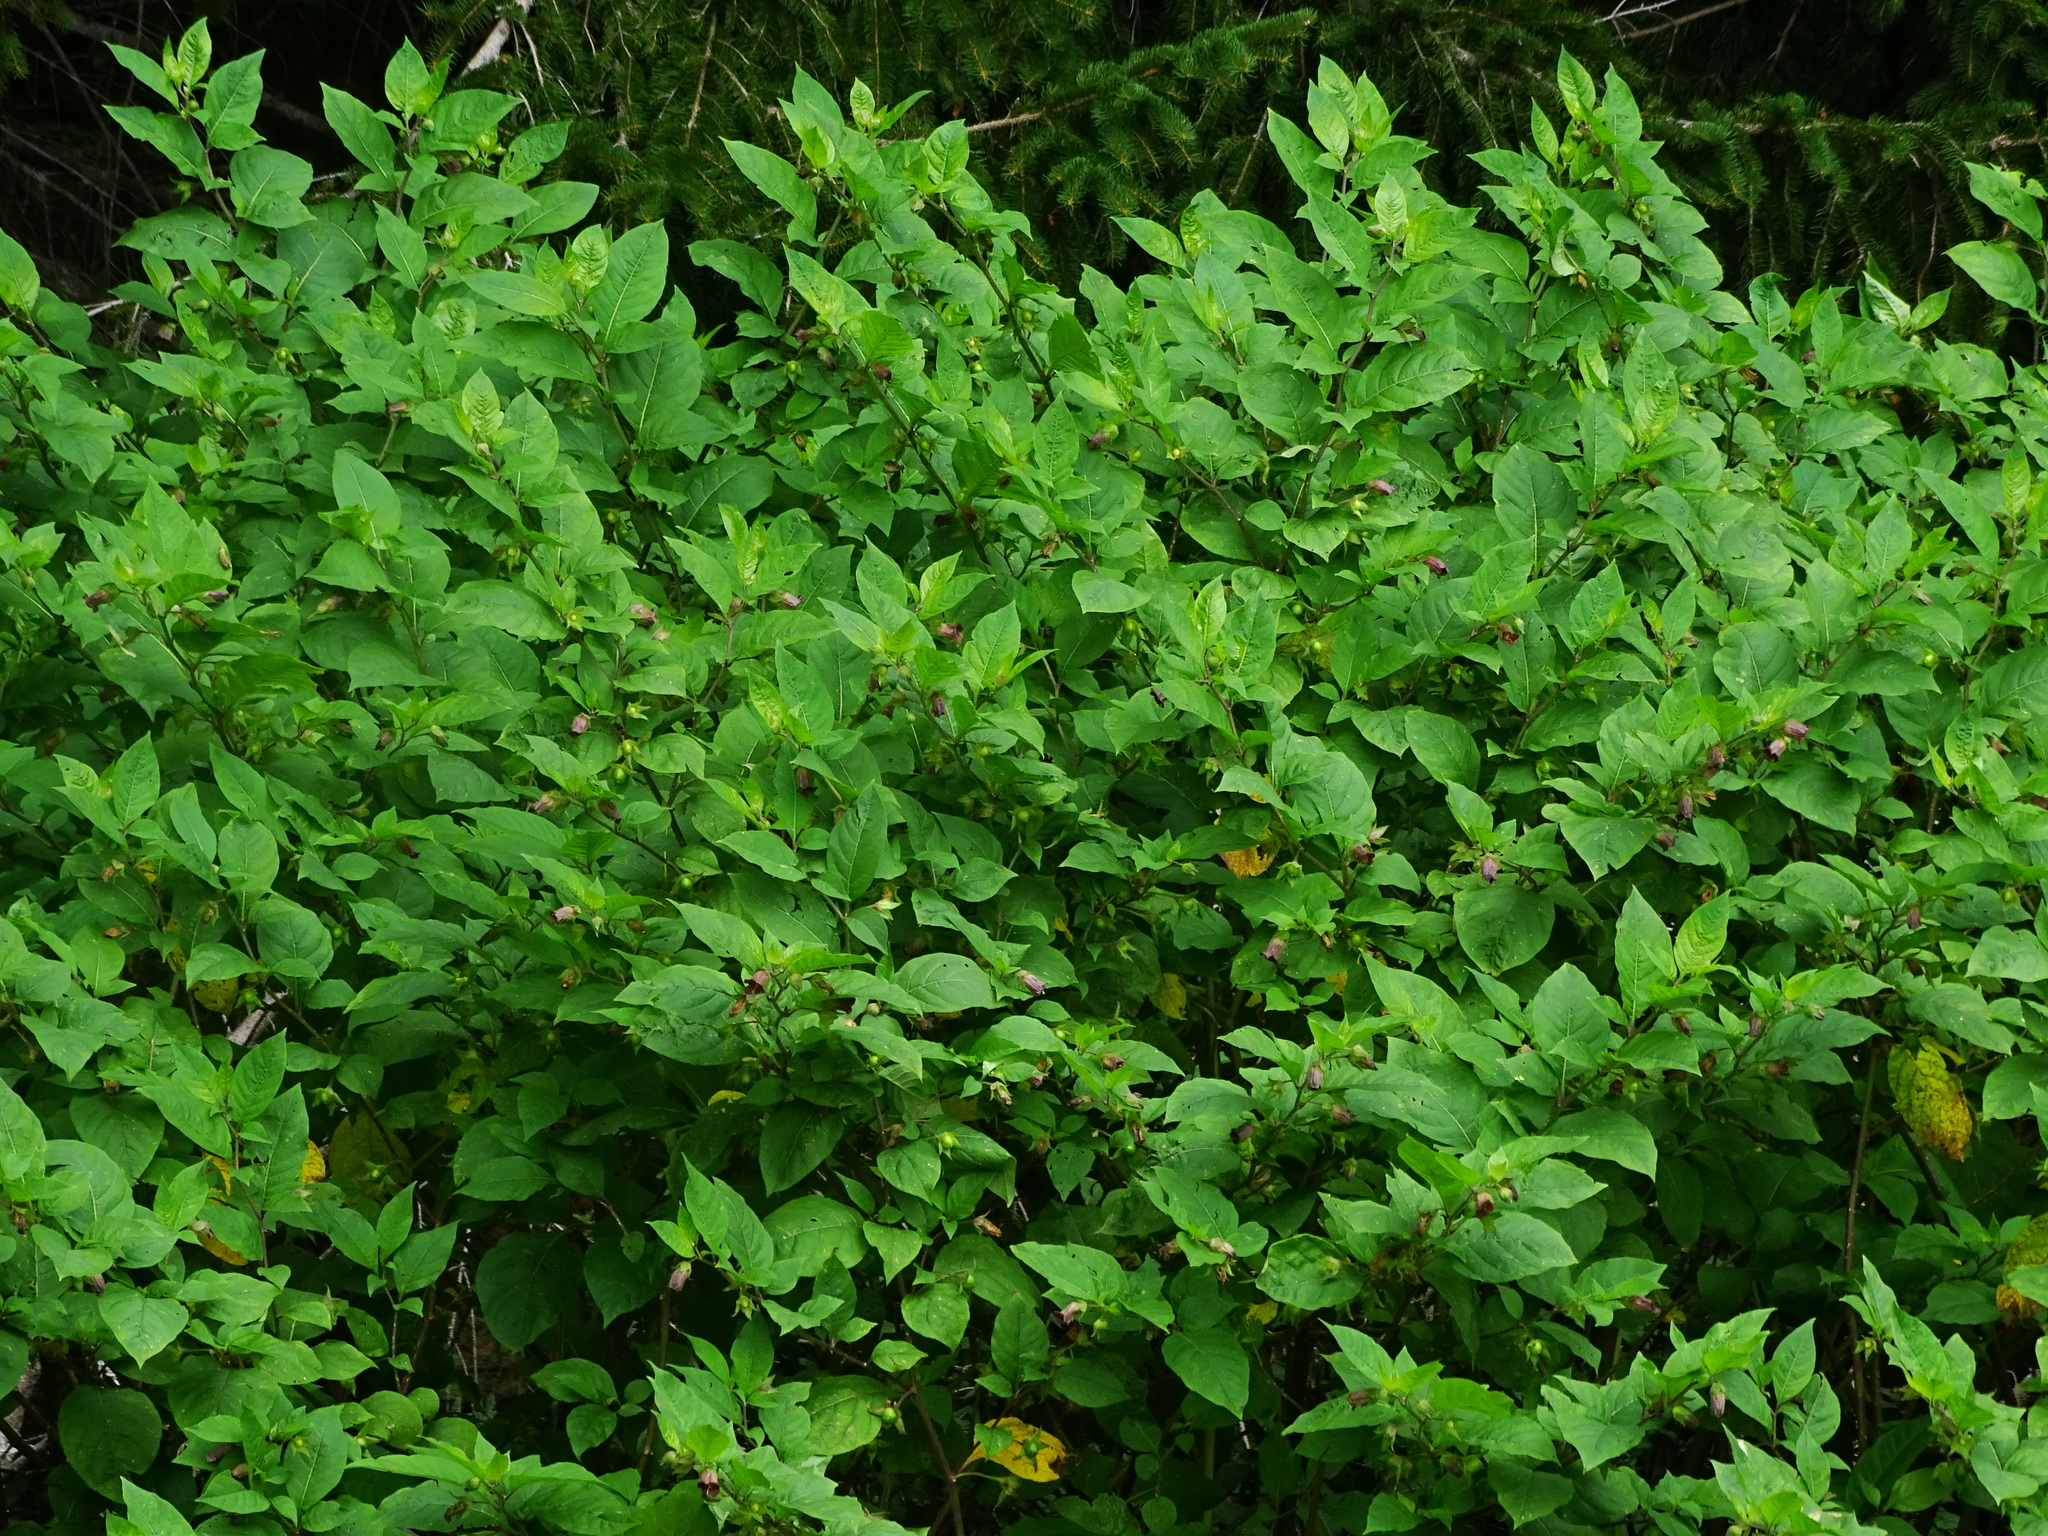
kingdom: Plantae
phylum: Tracheophyta
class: Magnoliopsida
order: Solanales
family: Solanaceae
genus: Atropa
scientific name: Atropa belladonna
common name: Deadly nightshade
